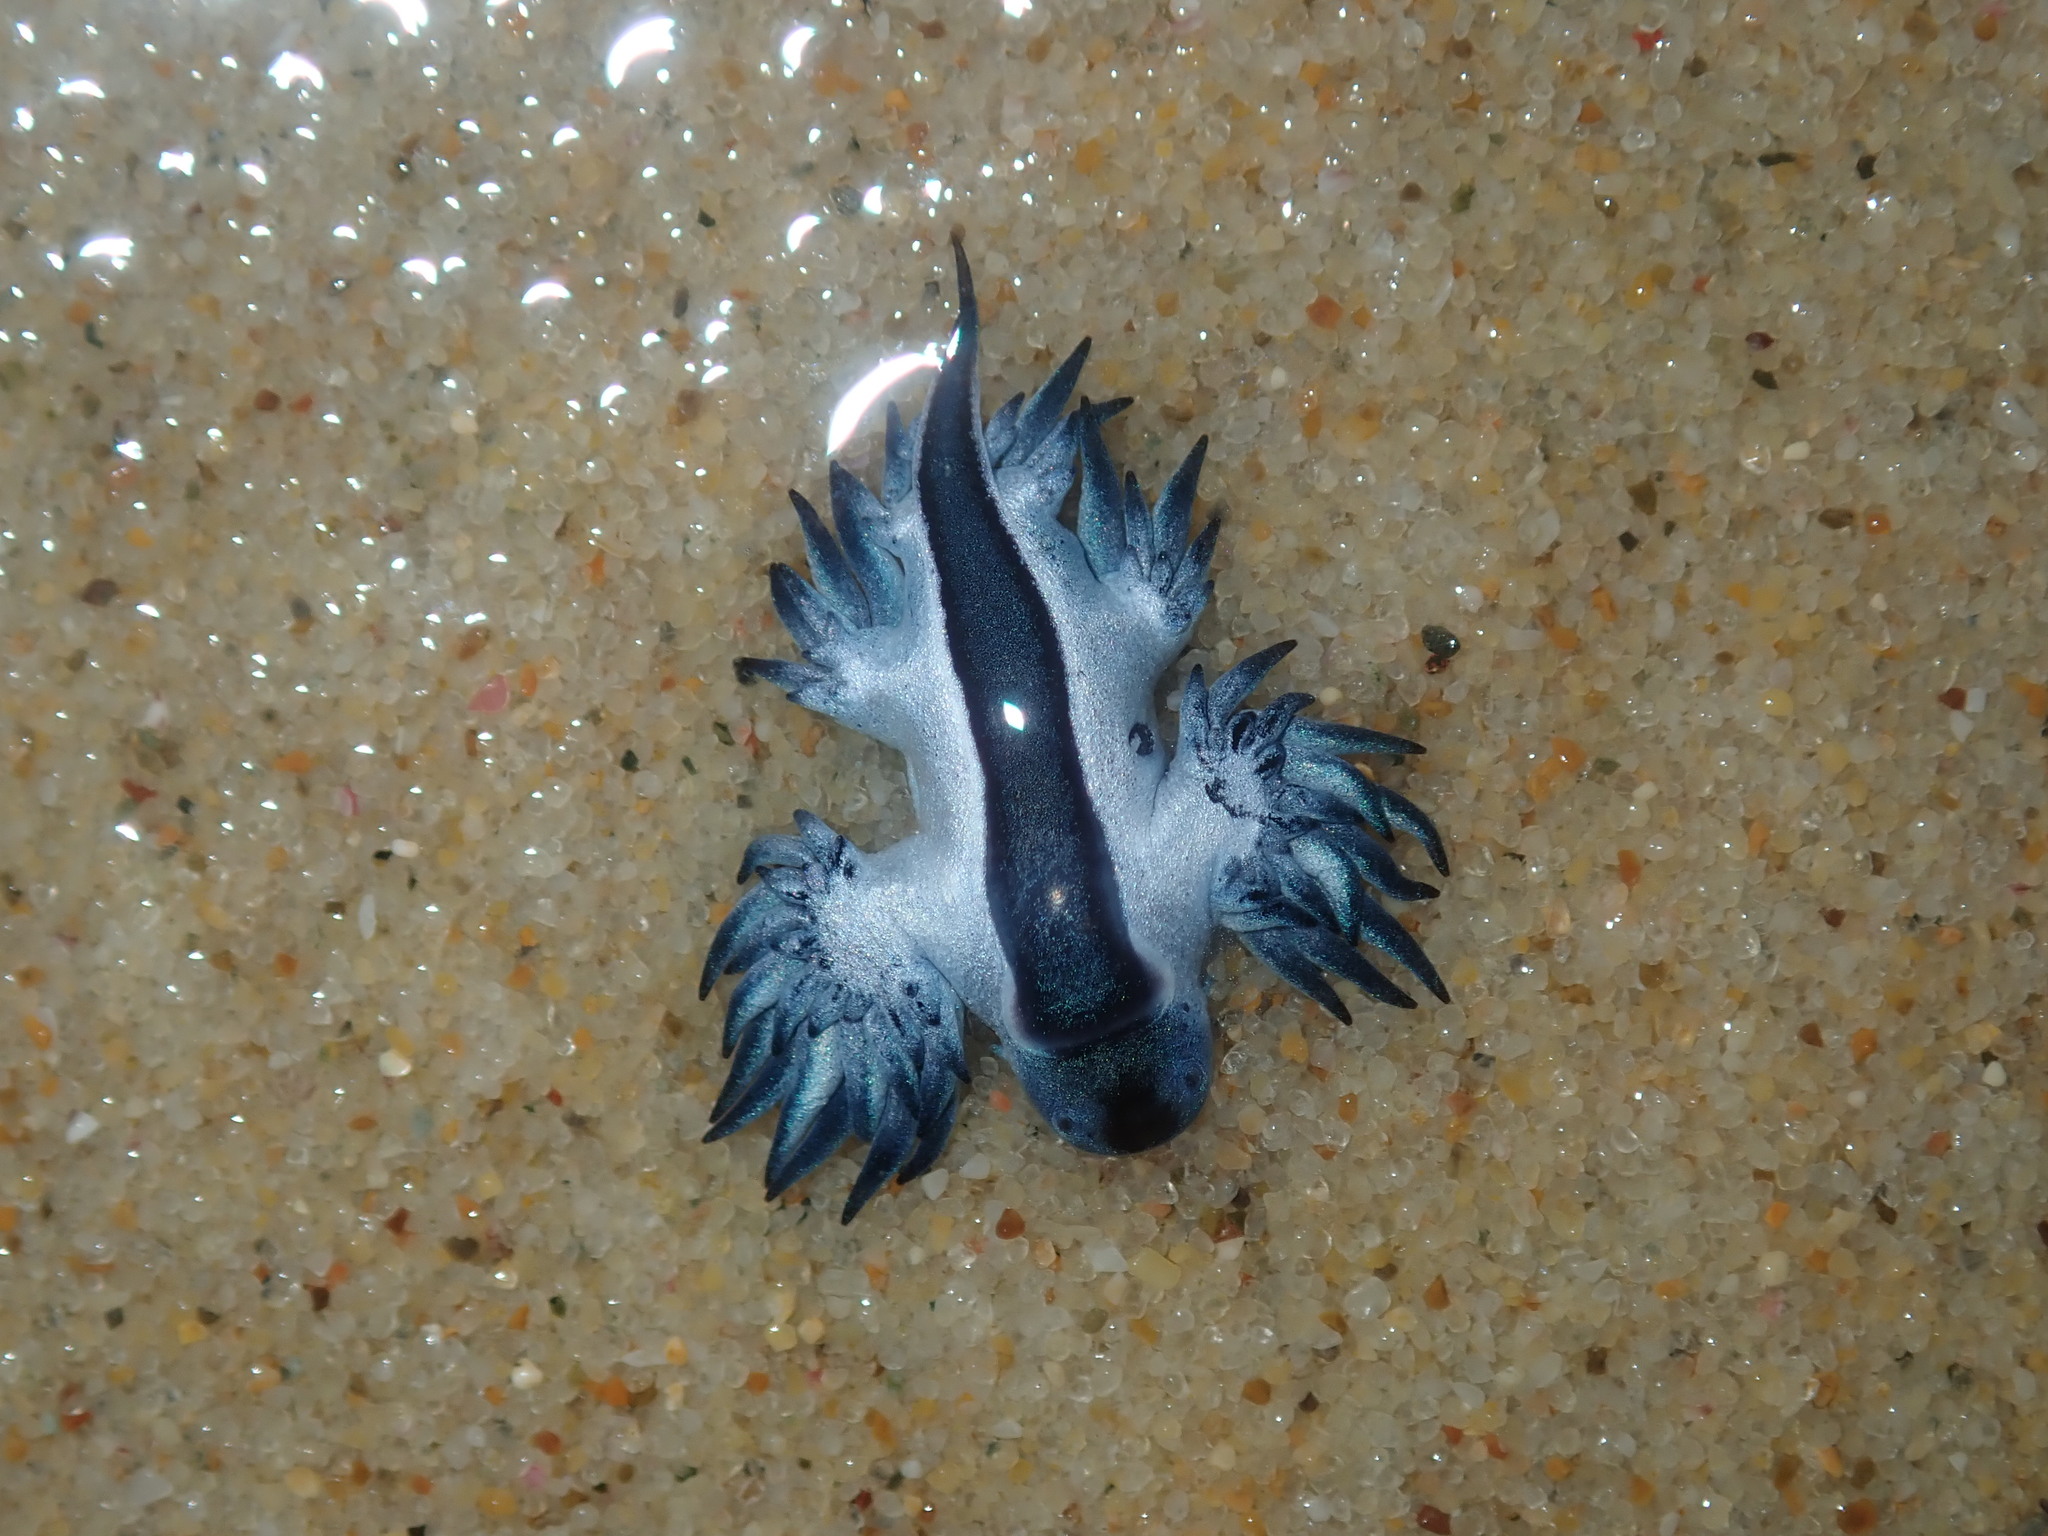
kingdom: Animalia
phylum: Mollusca
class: Gastropoda
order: Nudibranchia
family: Glaucidae
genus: Glaucilla
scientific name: Glaucilla bennettae
